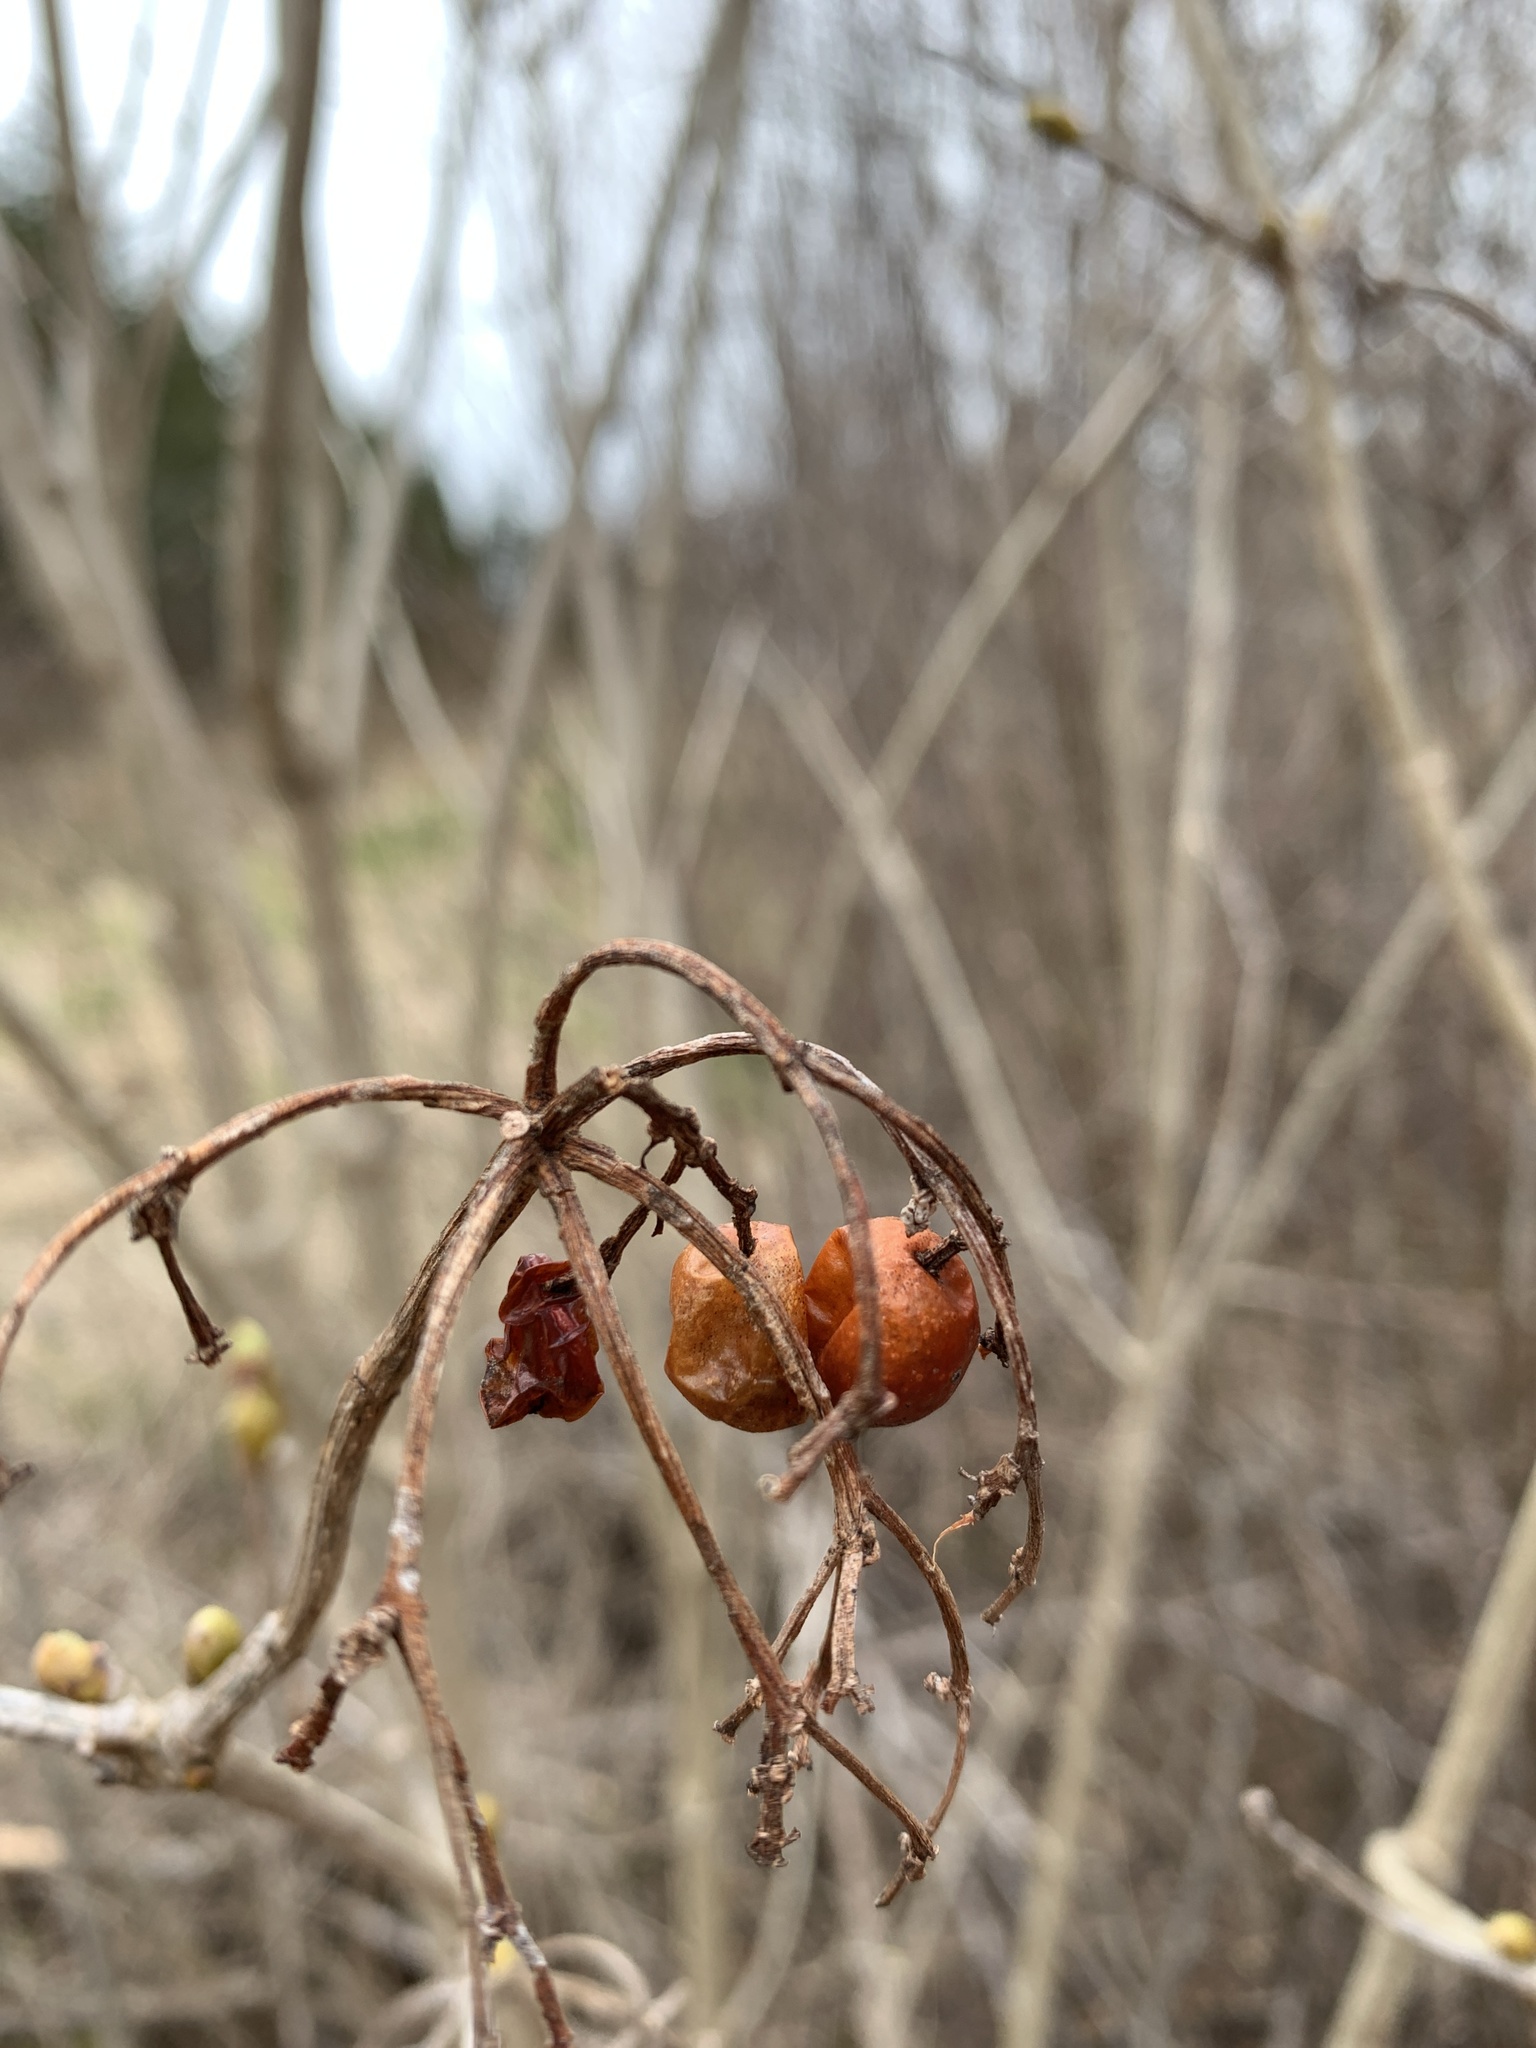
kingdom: Animalia
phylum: Arthropoda
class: Insecta
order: Lepidoptera
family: Gracillariidae
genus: Marmara
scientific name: Marmara viburnella
